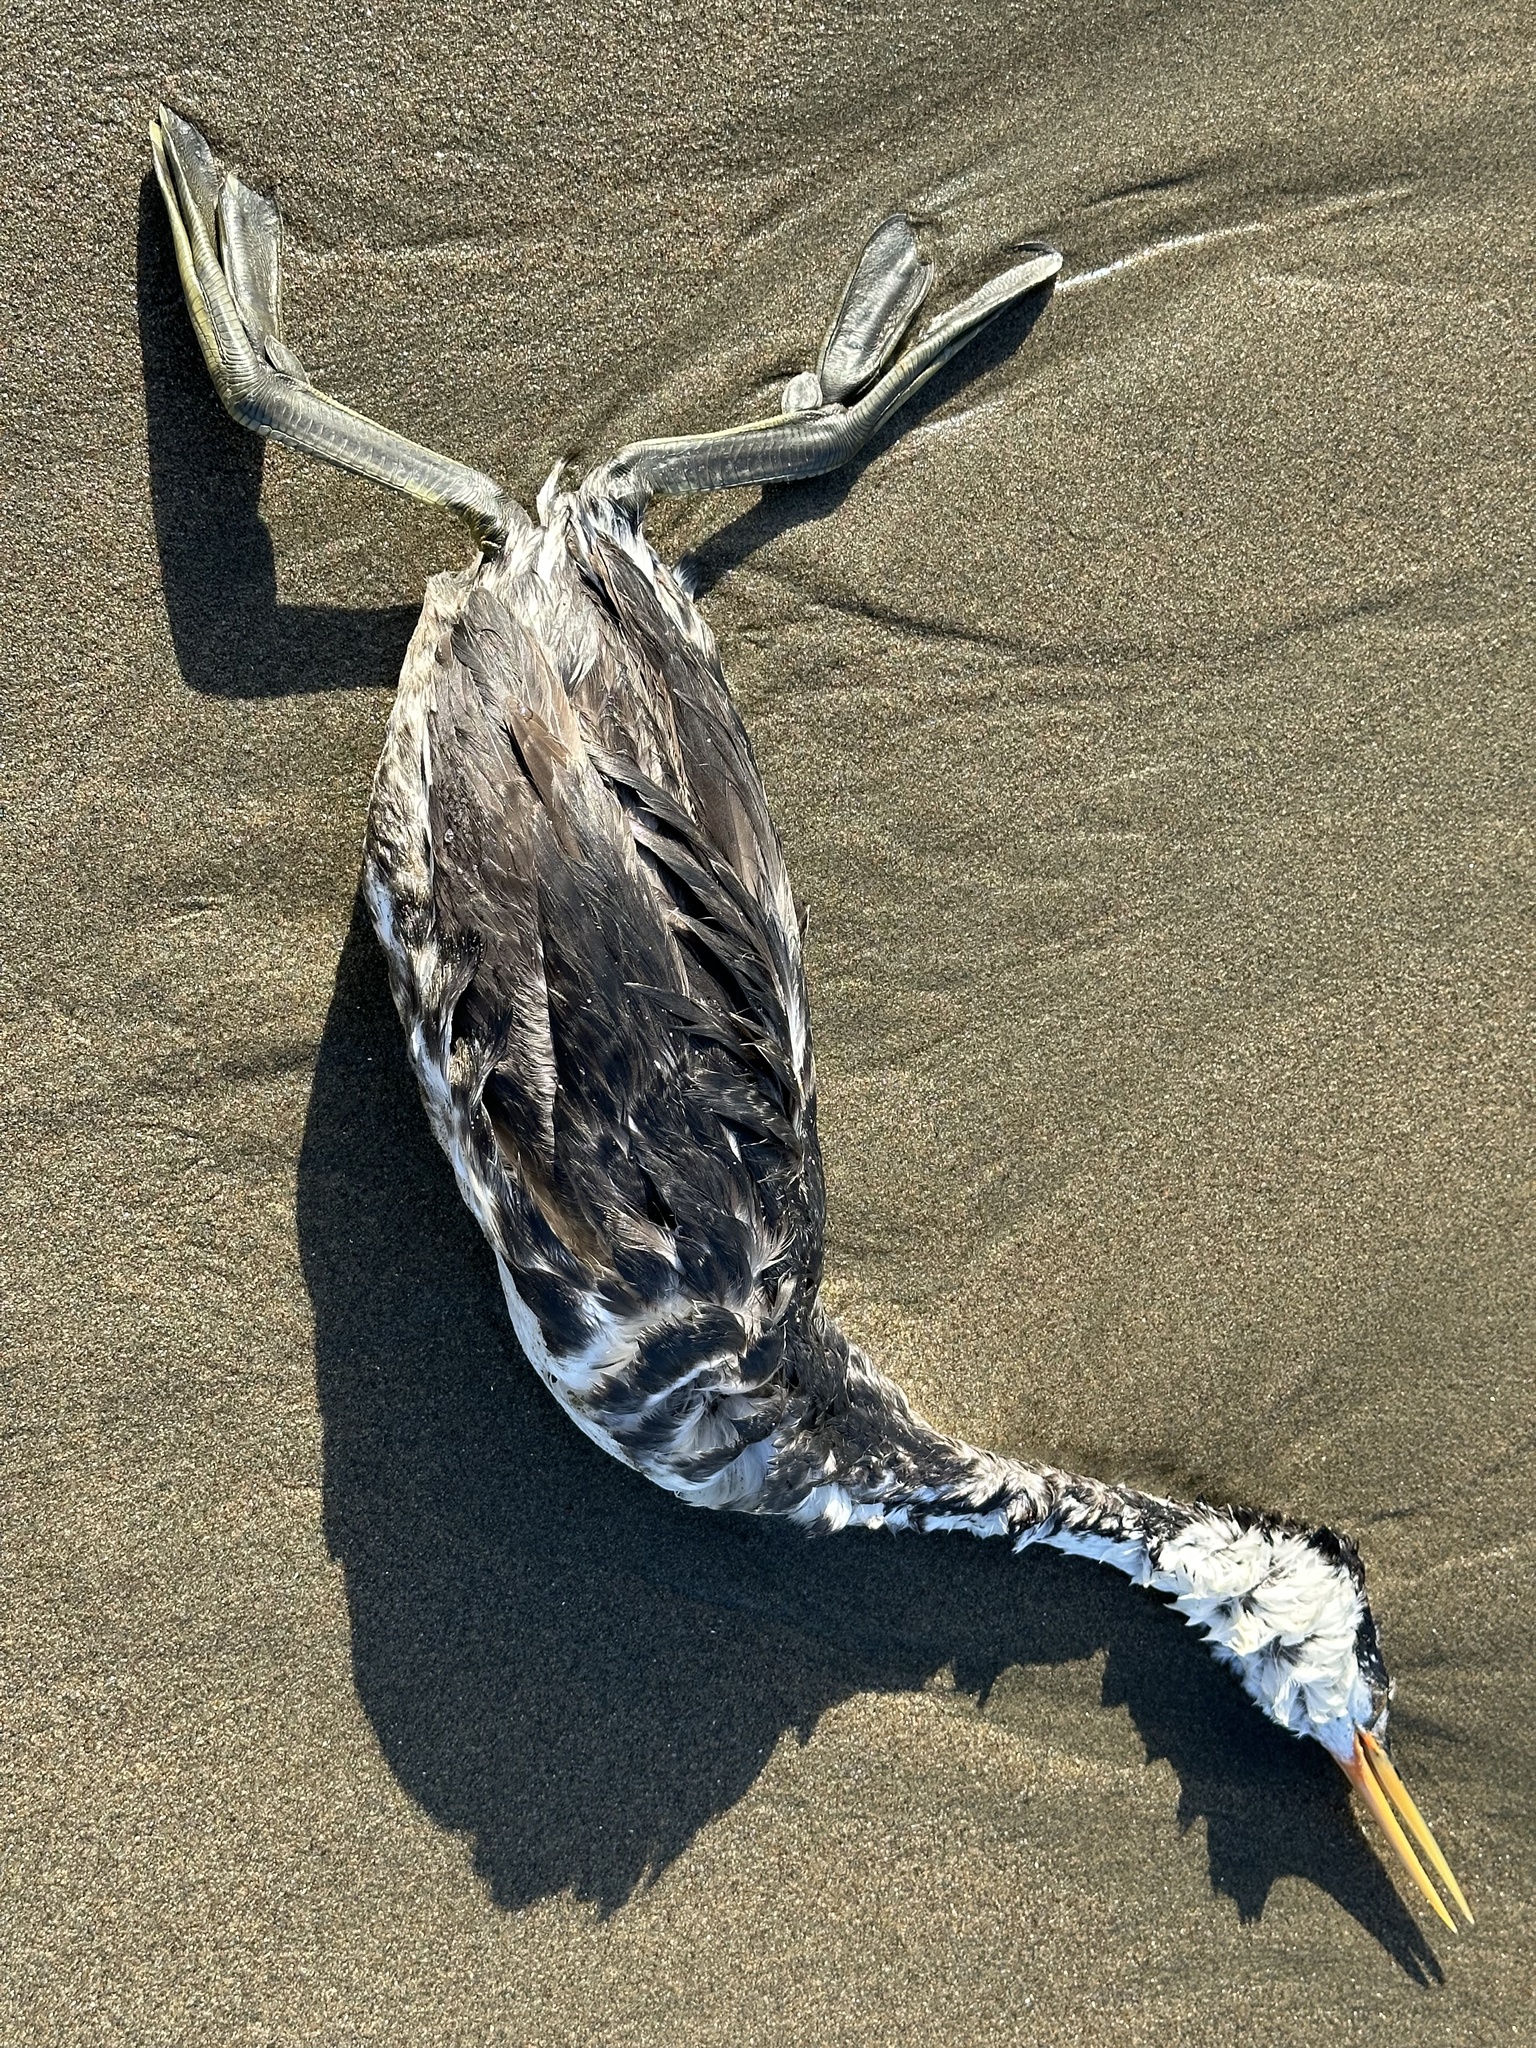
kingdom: Animalia
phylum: Chordata
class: Aves
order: Podicipediformes
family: Podicipedidae
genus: Aechmophorus
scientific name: Aechmophorus clarkii
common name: Clark's grebe
